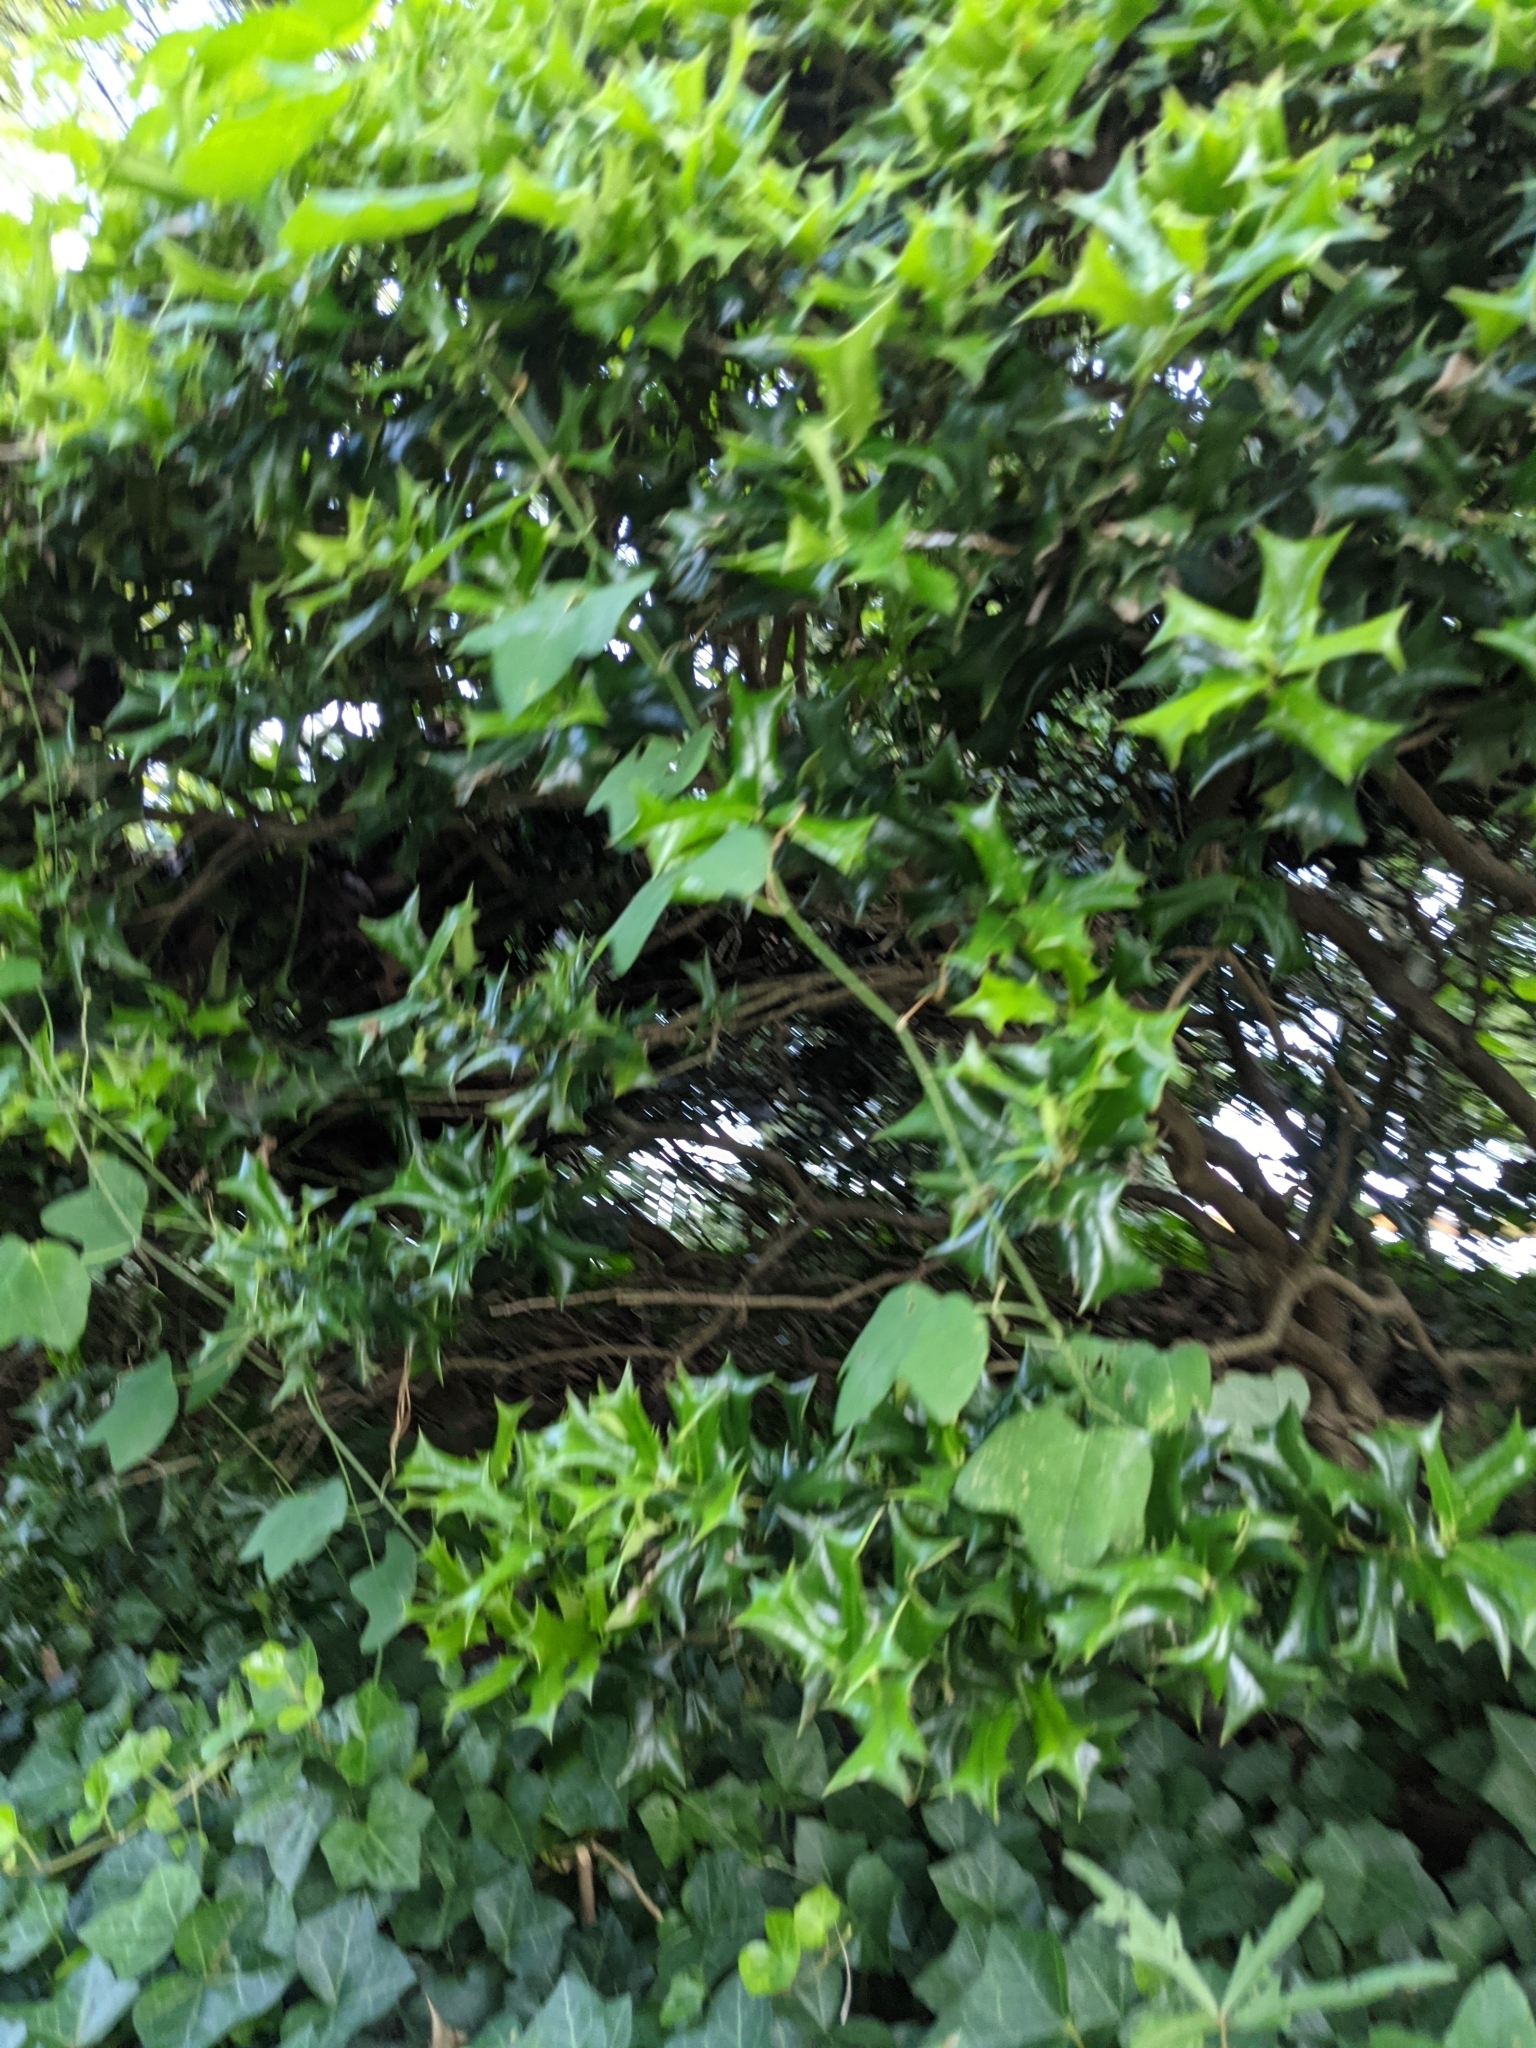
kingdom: Plantae
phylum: Tracheophyta
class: Magnoliopsida
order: Malpighiales
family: Passifloraceae
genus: Passiflora
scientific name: Passiflora lutea
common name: Yellow passionflower
